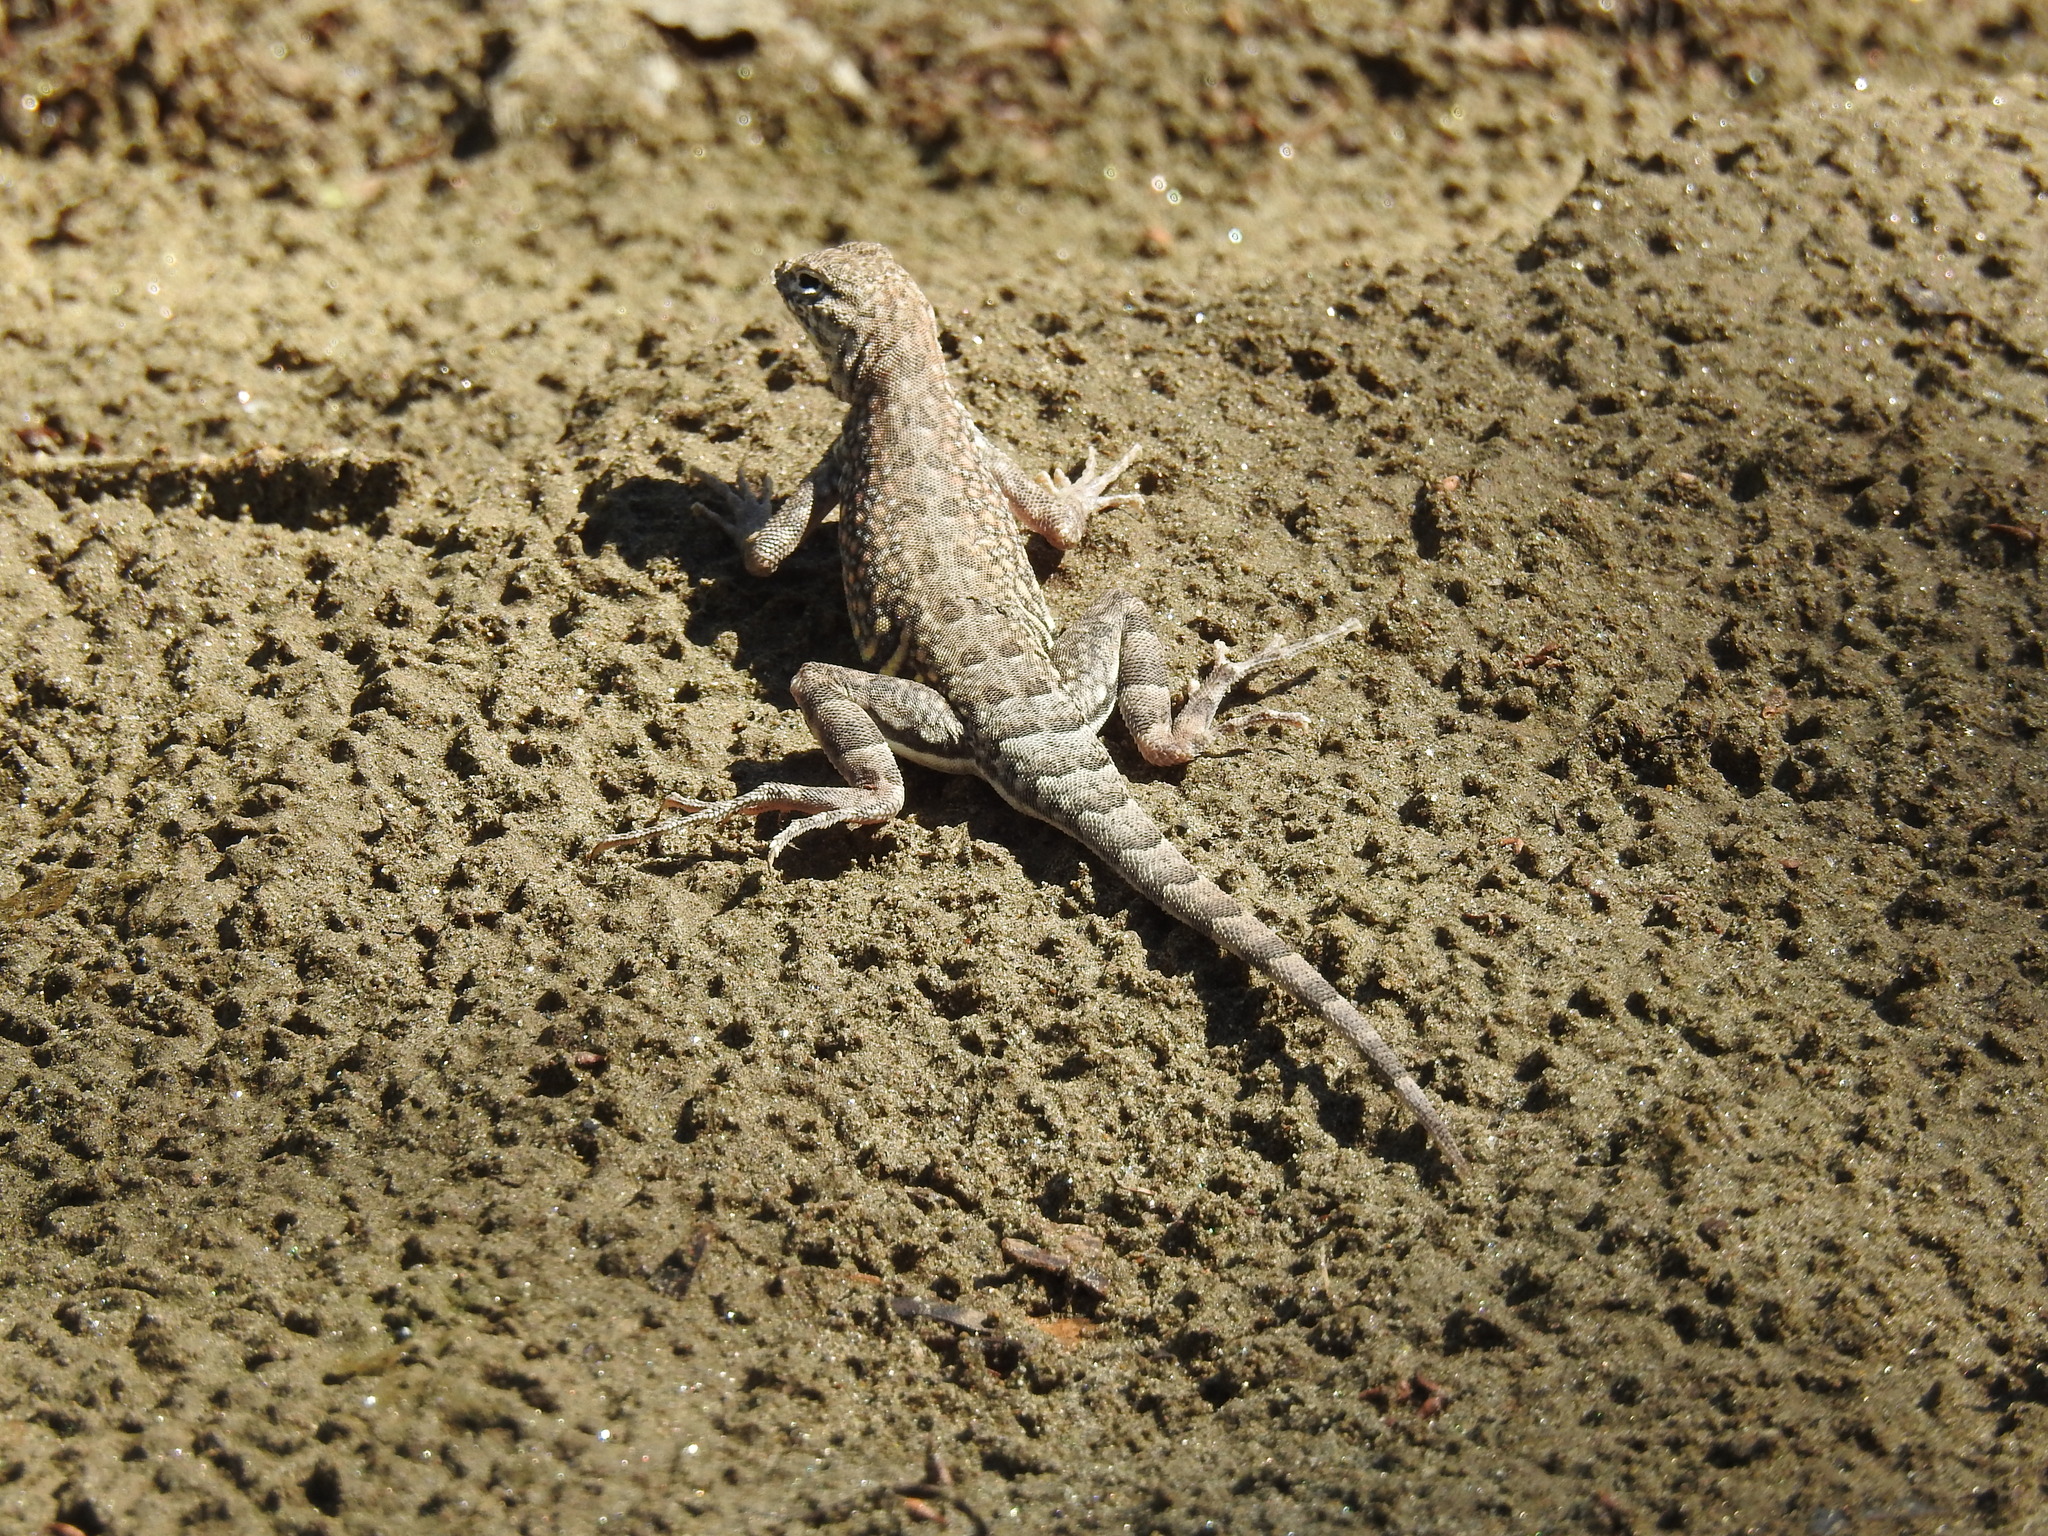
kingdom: Animalia
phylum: Chordata
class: Squamata
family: Phrynosomatidae
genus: Cophosaurus
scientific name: Cophosaurus texanus
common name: Greater earless lizard
